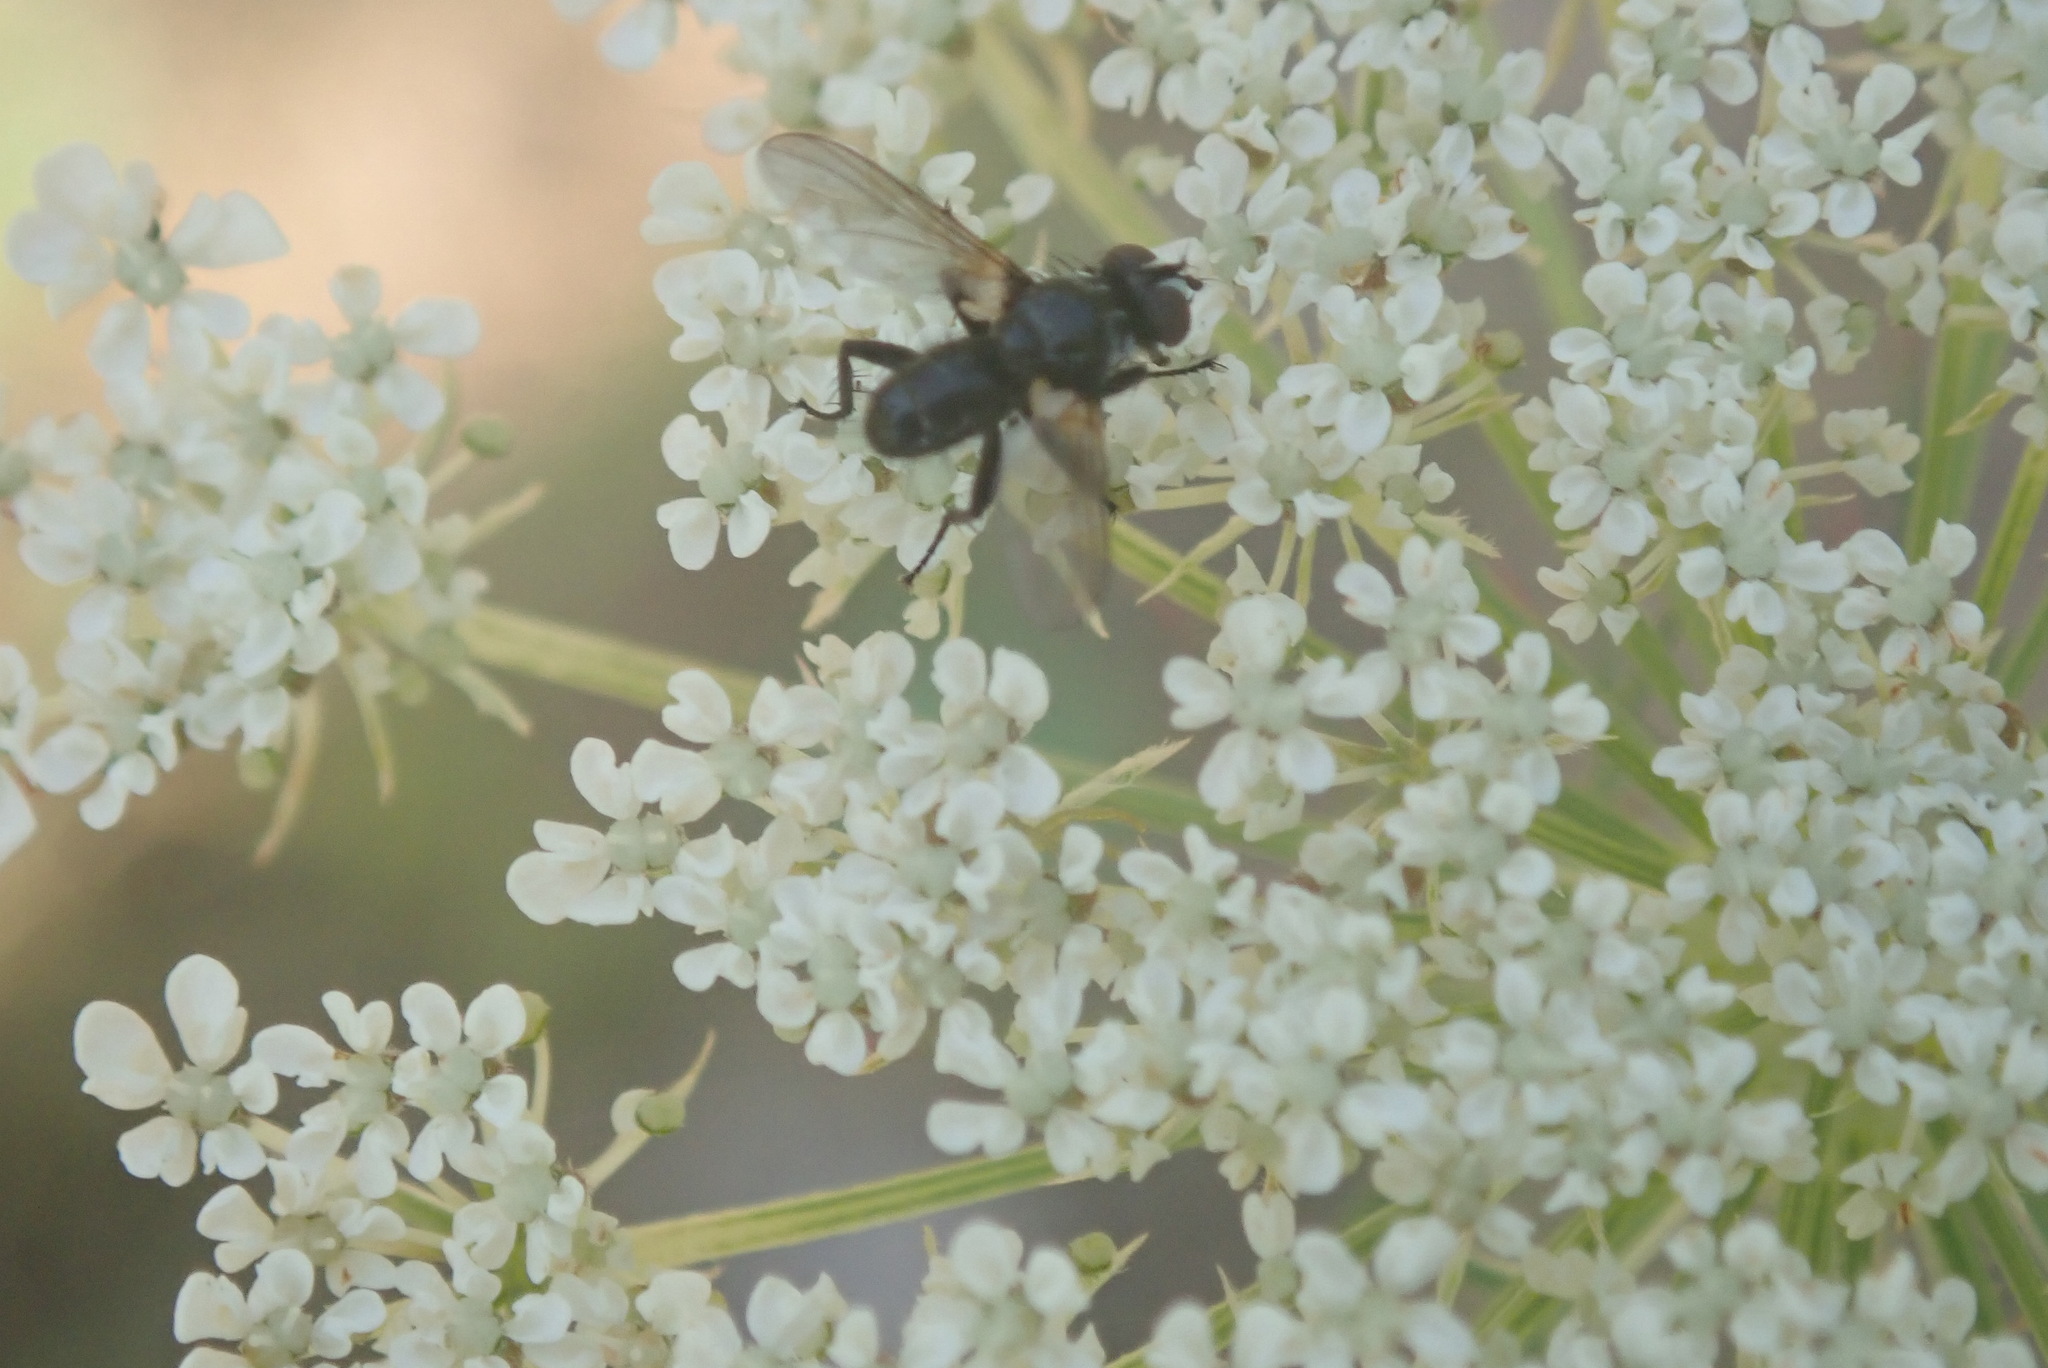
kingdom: Animalia
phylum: Arthropoda
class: Insecta
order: Diptera
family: Tachinidae
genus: Phania
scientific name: Phania funesta
